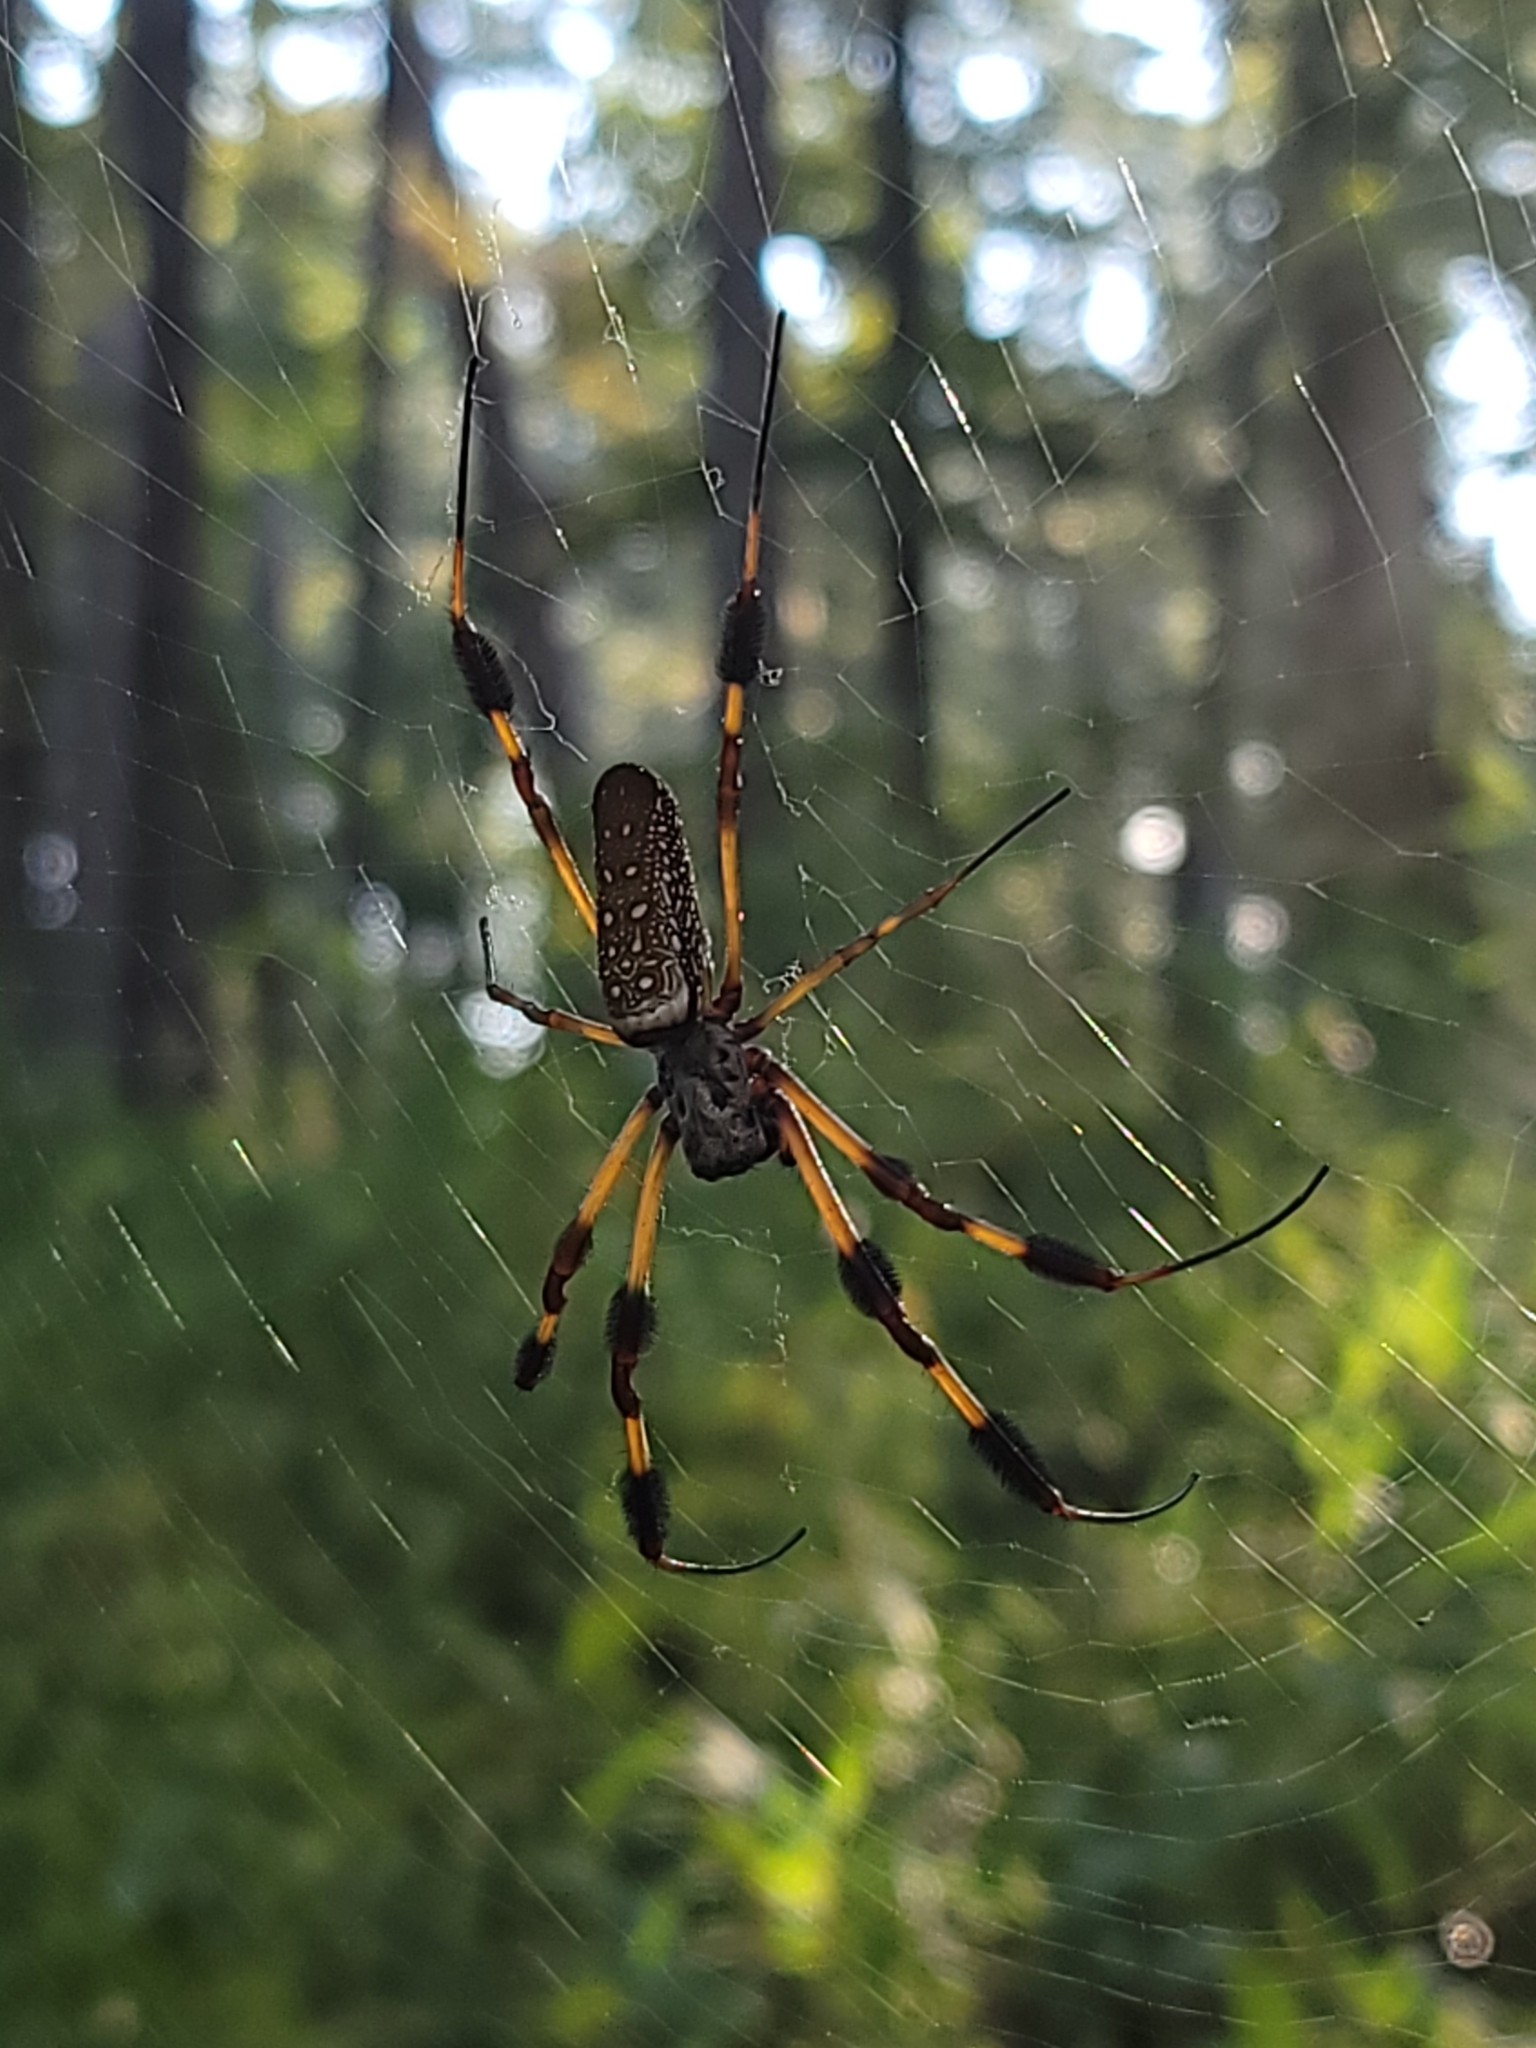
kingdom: Animalia
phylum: Arthropoda
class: Arachnida
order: Araneae
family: Araneidae
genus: Trichonephila
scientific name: Trichonephila clavipes
